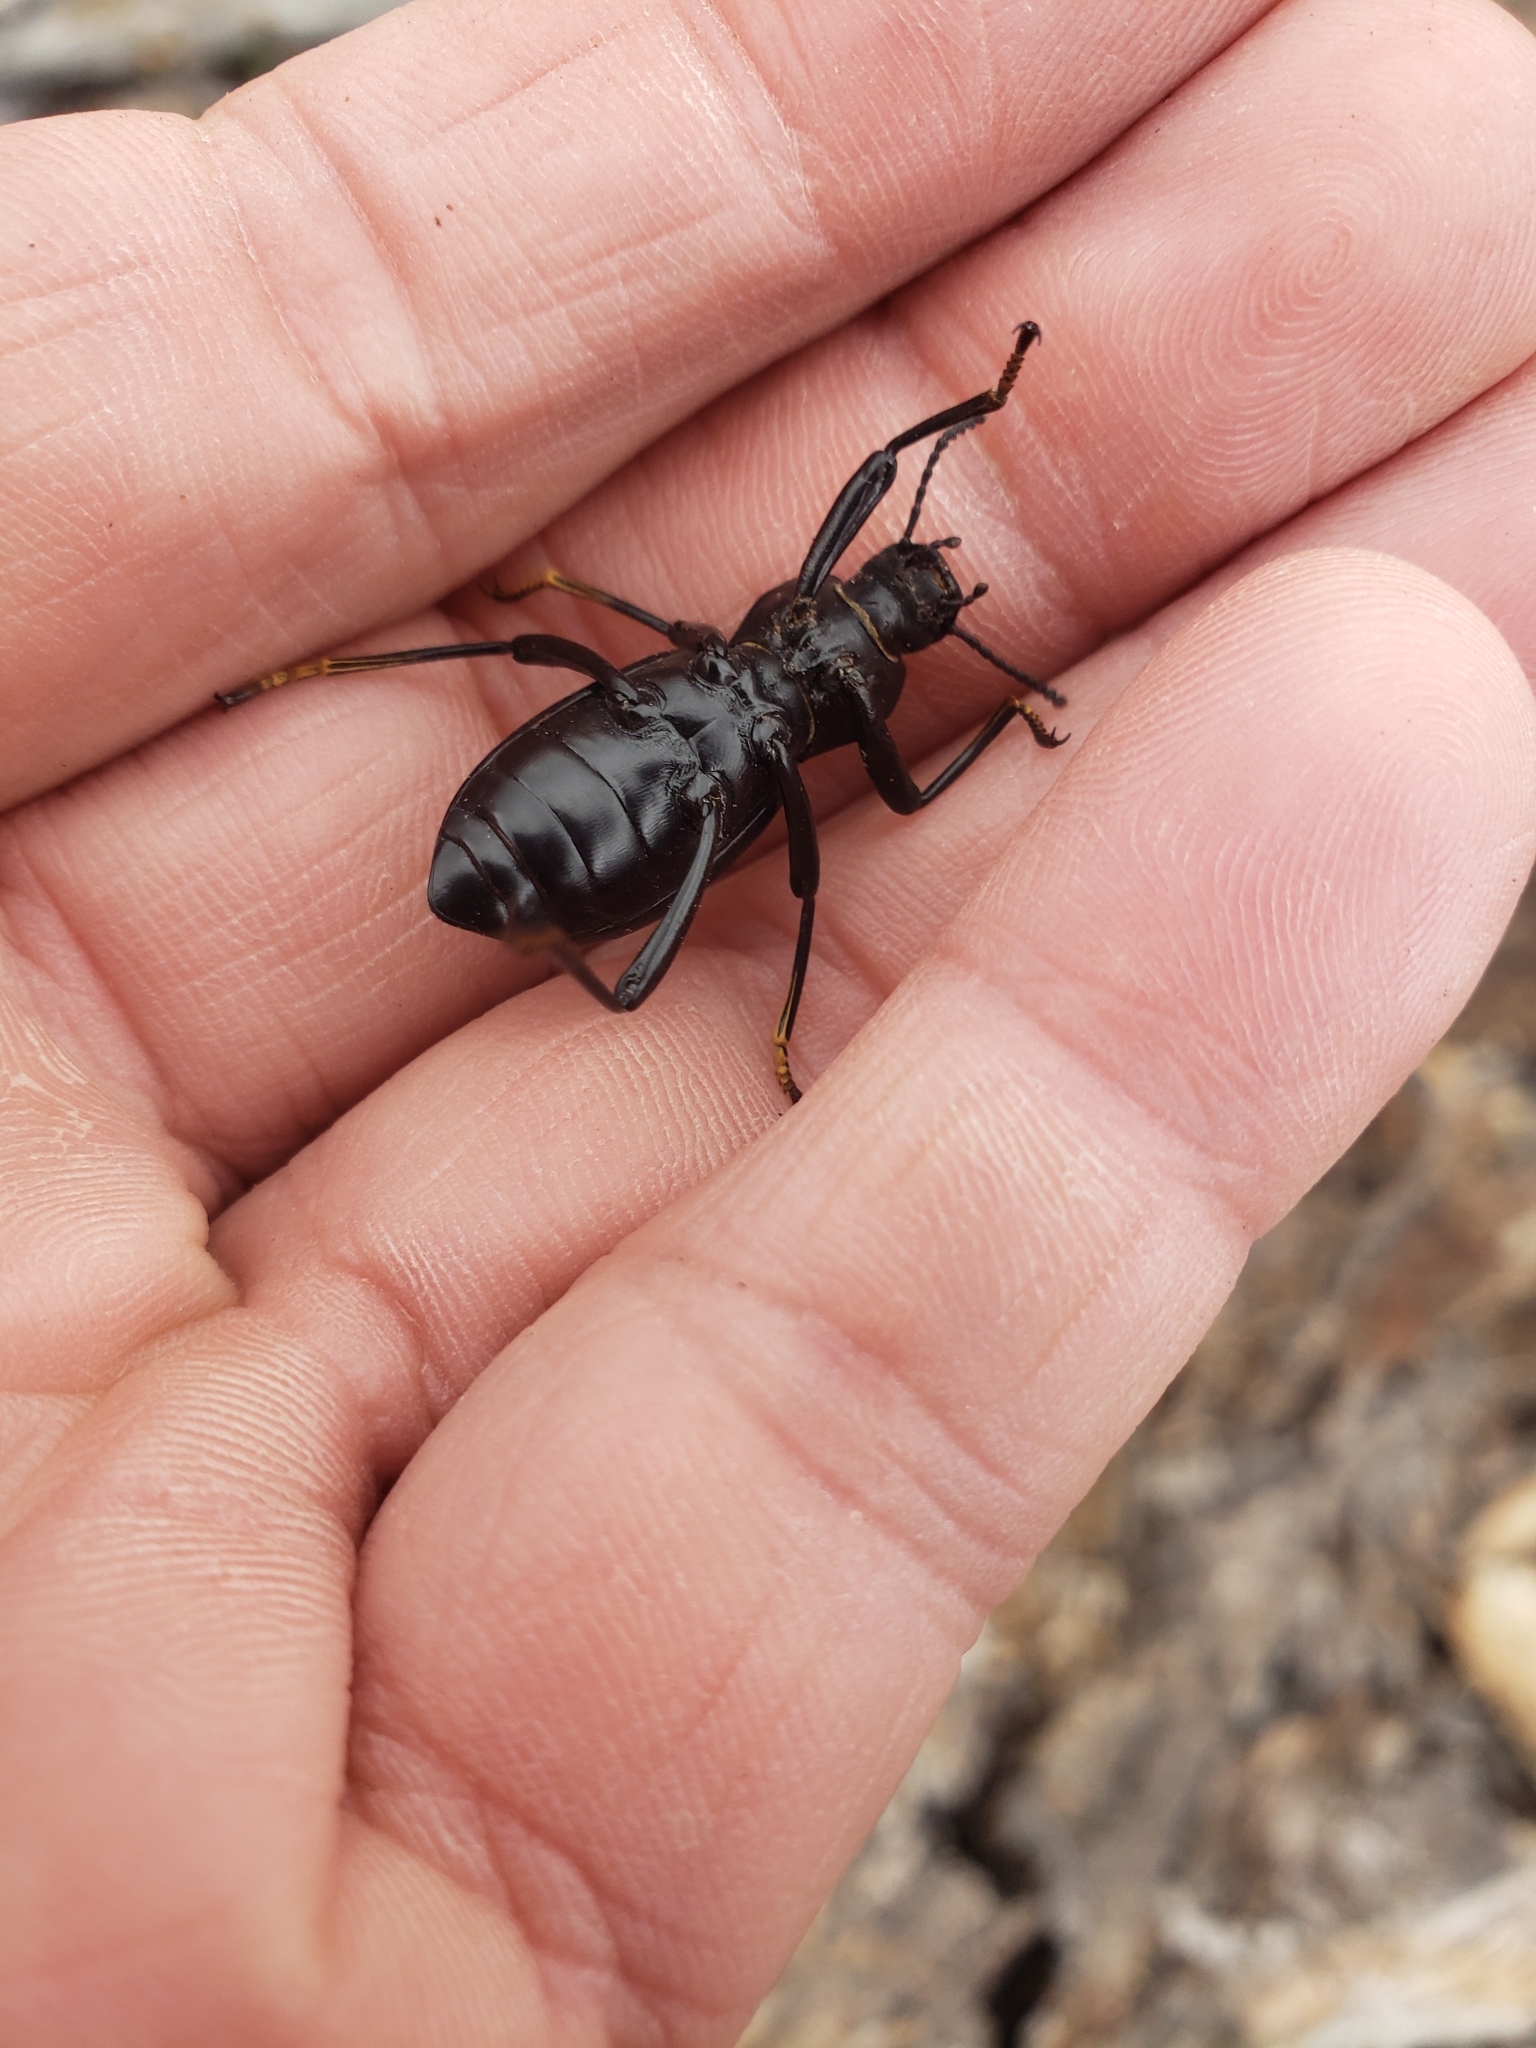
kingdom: Animalia
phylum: Arthropoda
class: Insecta
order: Coleoptera
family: Tenebrionidae
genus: Coelocnemis
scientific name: Coelocnemis punctata
